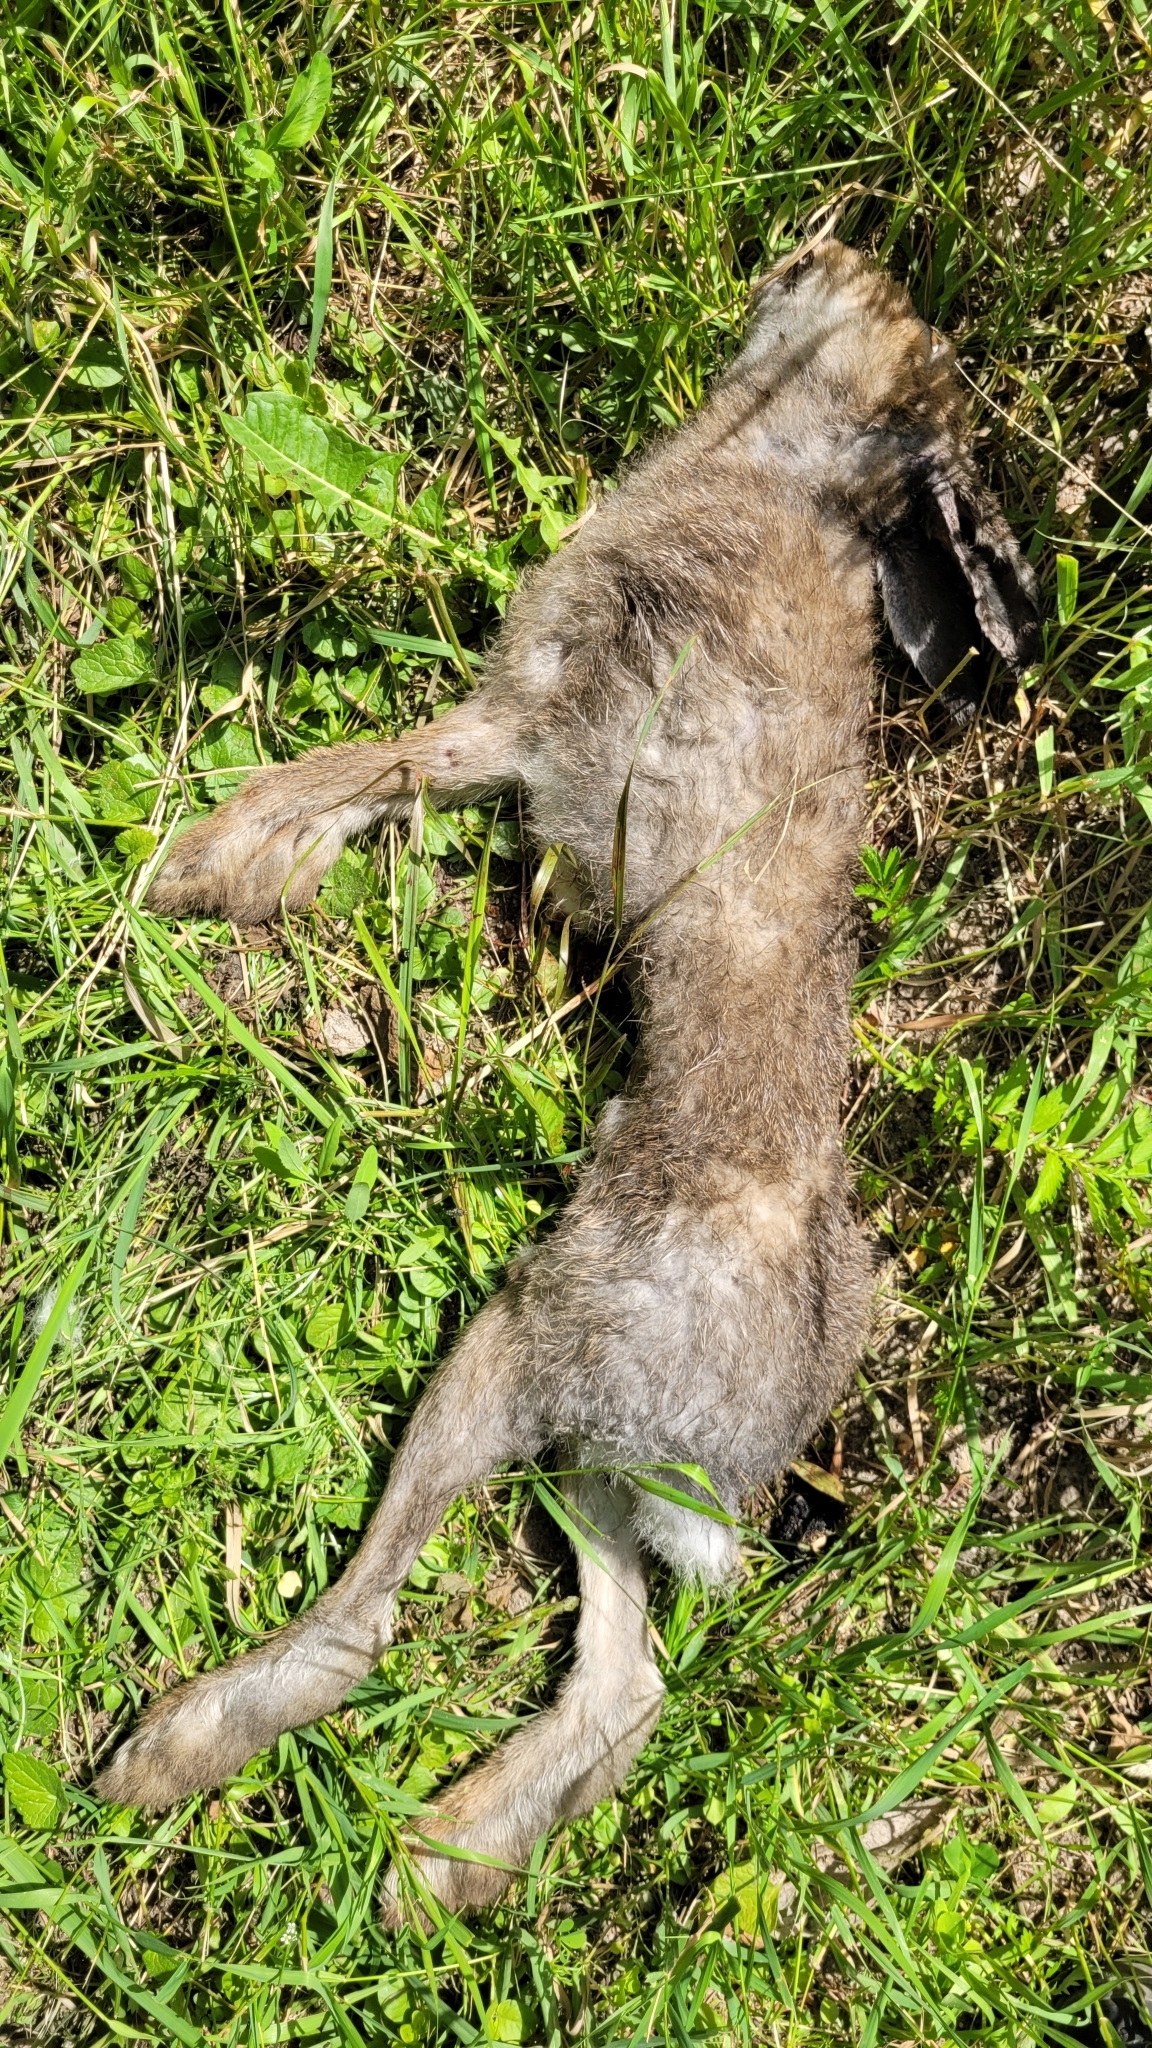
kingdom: Animalia
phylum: Chordata
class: Mammalia
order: Lagomorpha
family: Leporidae
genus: Lepus
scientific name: Lepus timidus
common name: Mountain hare
